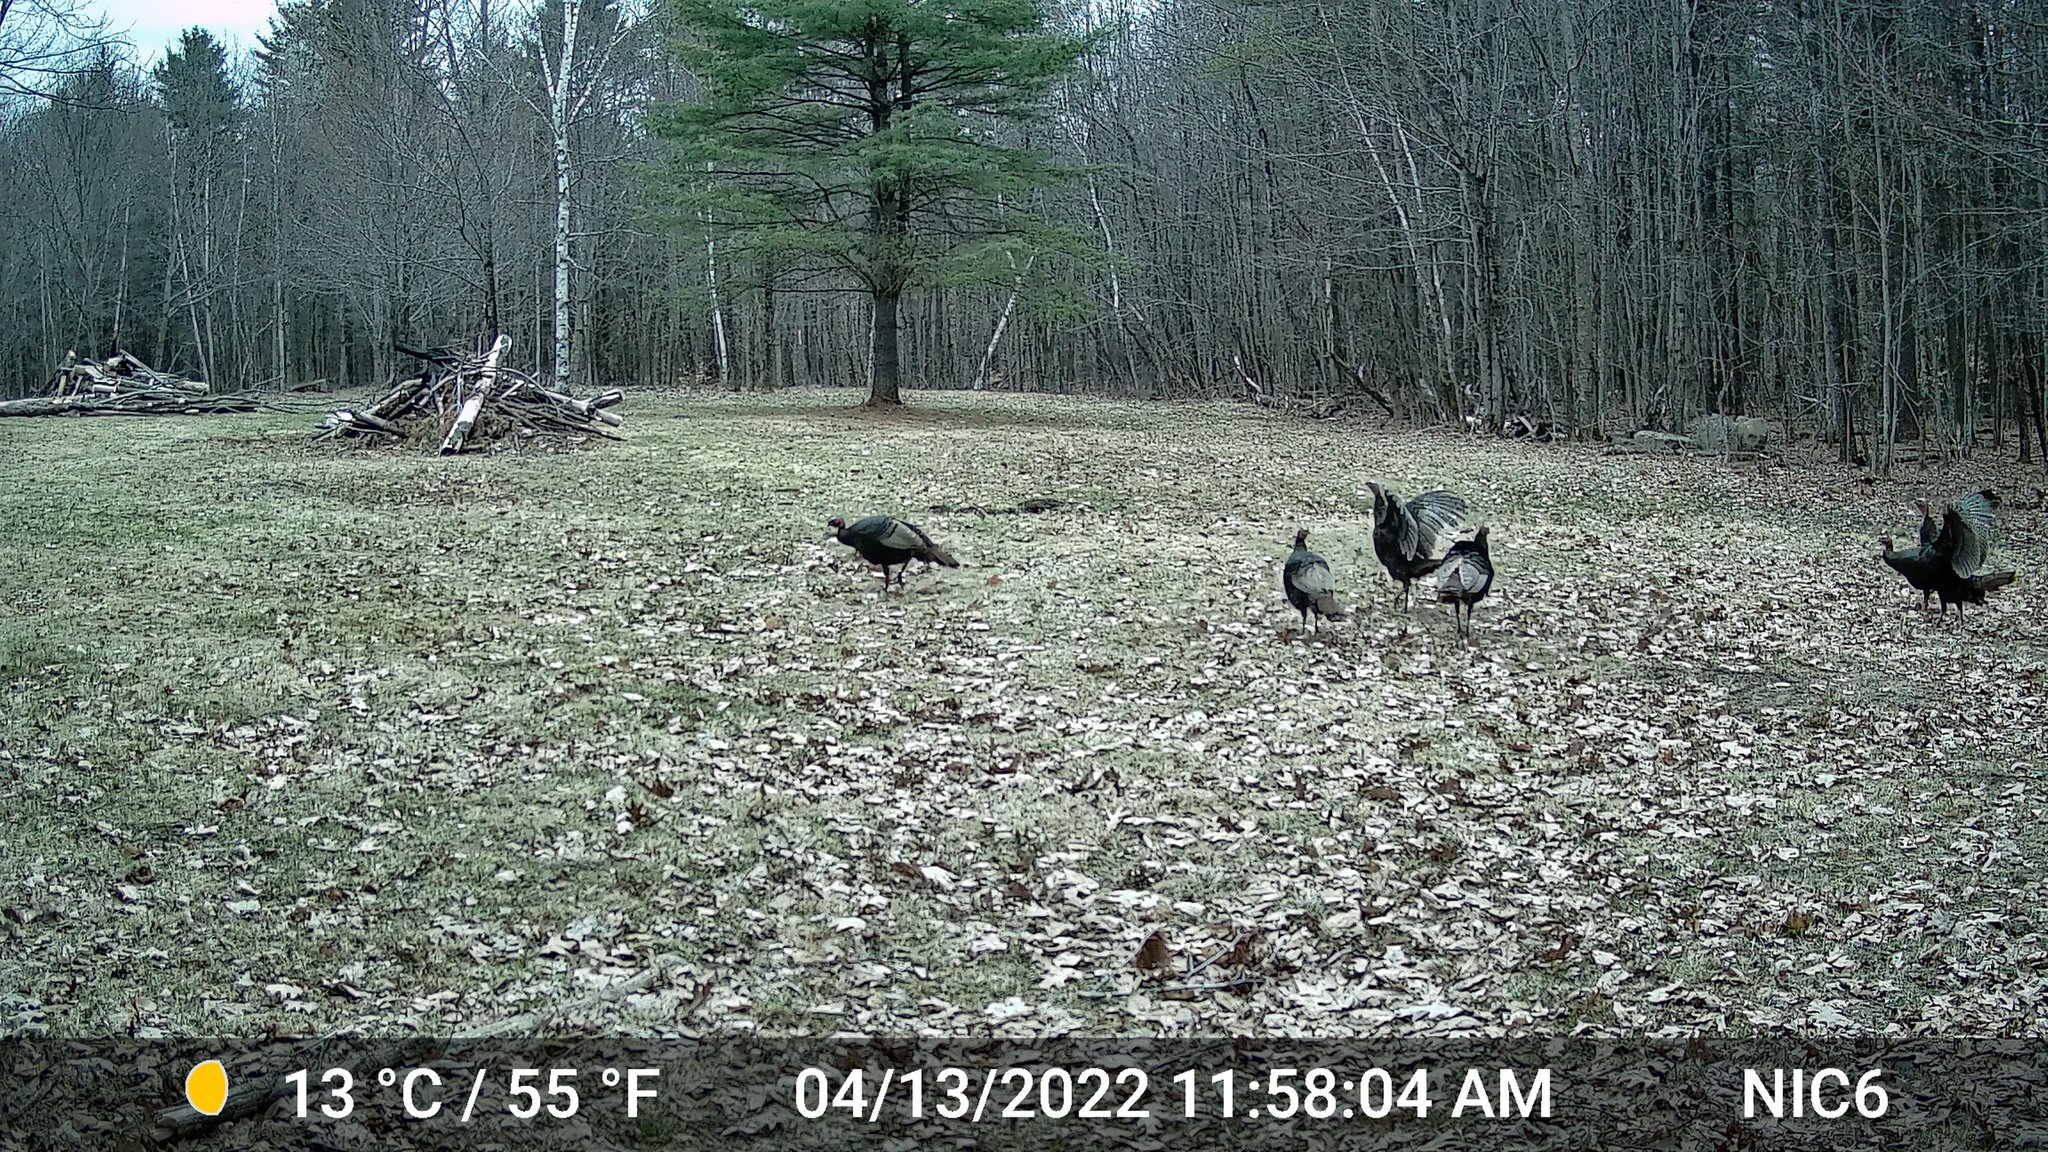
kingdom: Animalia
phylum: Chordata
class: Aves
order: Galliformes
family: Phasianidae
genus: Meleagris
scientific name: Meleagris gallopavo
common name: Wild turkey
